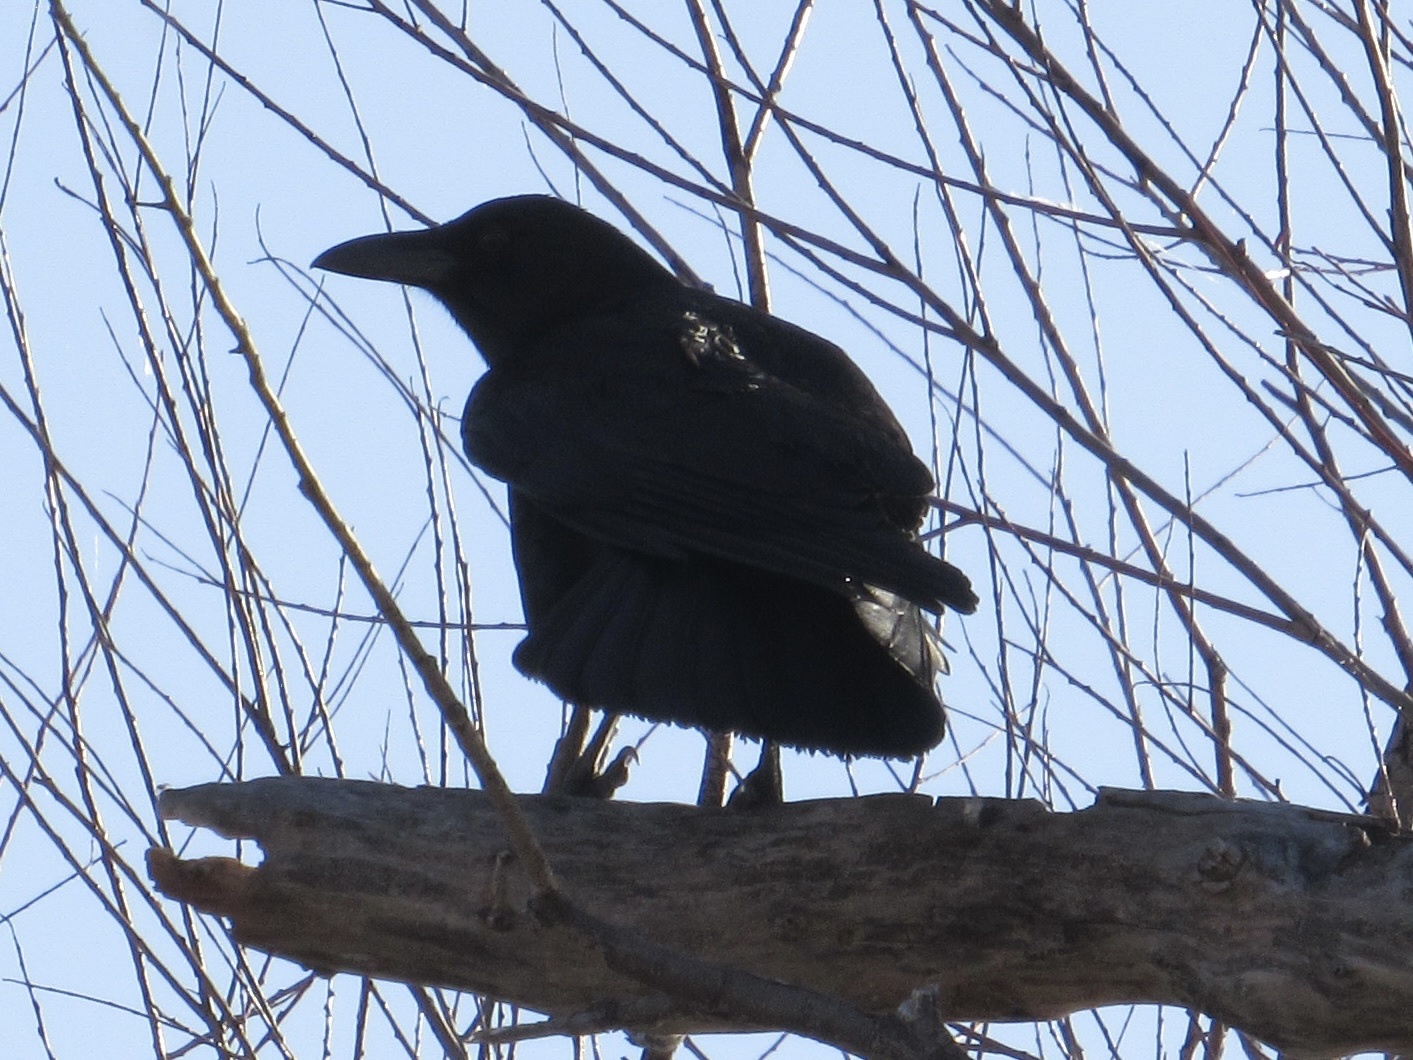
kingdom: Animalia
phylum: Chordata
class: Aves
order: Passeriformes
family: Corvidae
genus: Corvus
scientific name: Corvus brachyrhynchos
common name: American crow
